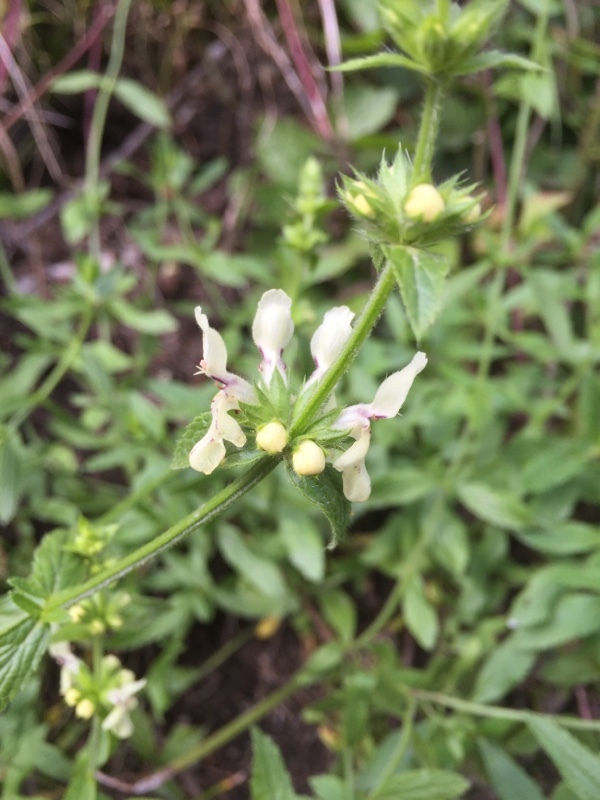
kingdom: Plantae
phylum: Tracheophyta
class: Magnoliopsida
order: Lamiales
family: Lamiaceae
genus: Stachys
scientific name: Stachys recta
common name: Perennial yellow-woundwort
